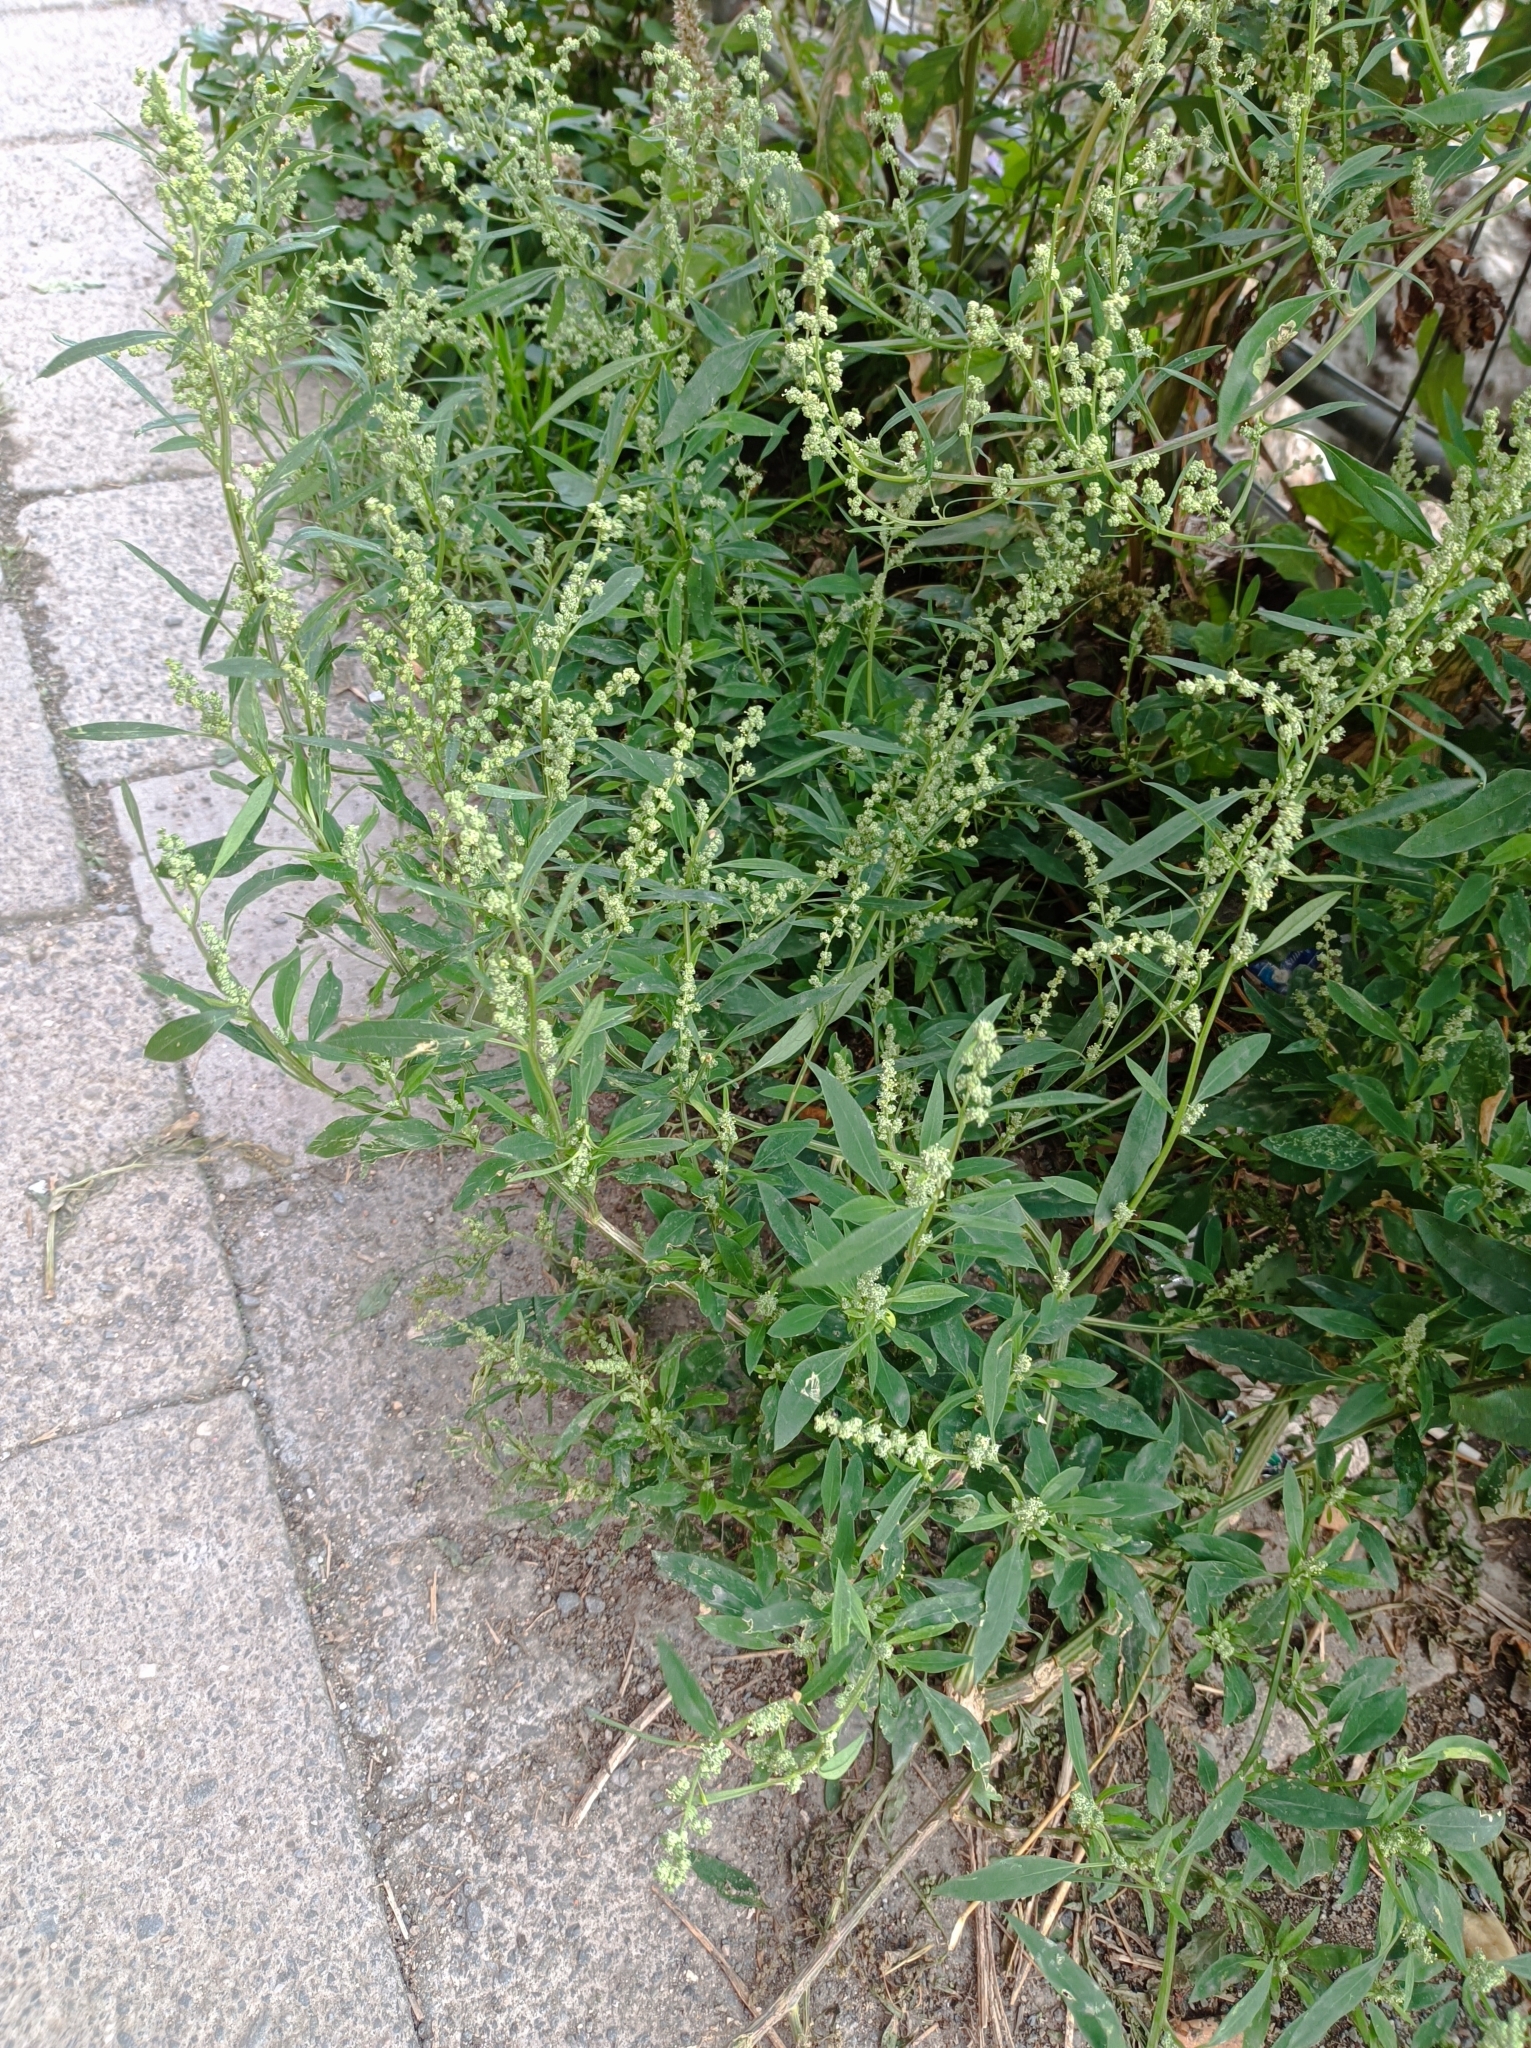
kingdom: Plantae
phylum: Tracheophyta
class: Magnoliopsida
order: Caryophyllales
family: Amaranthaceae
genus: Chenopodium
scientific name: Chenopodium album
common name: Fat-hen
